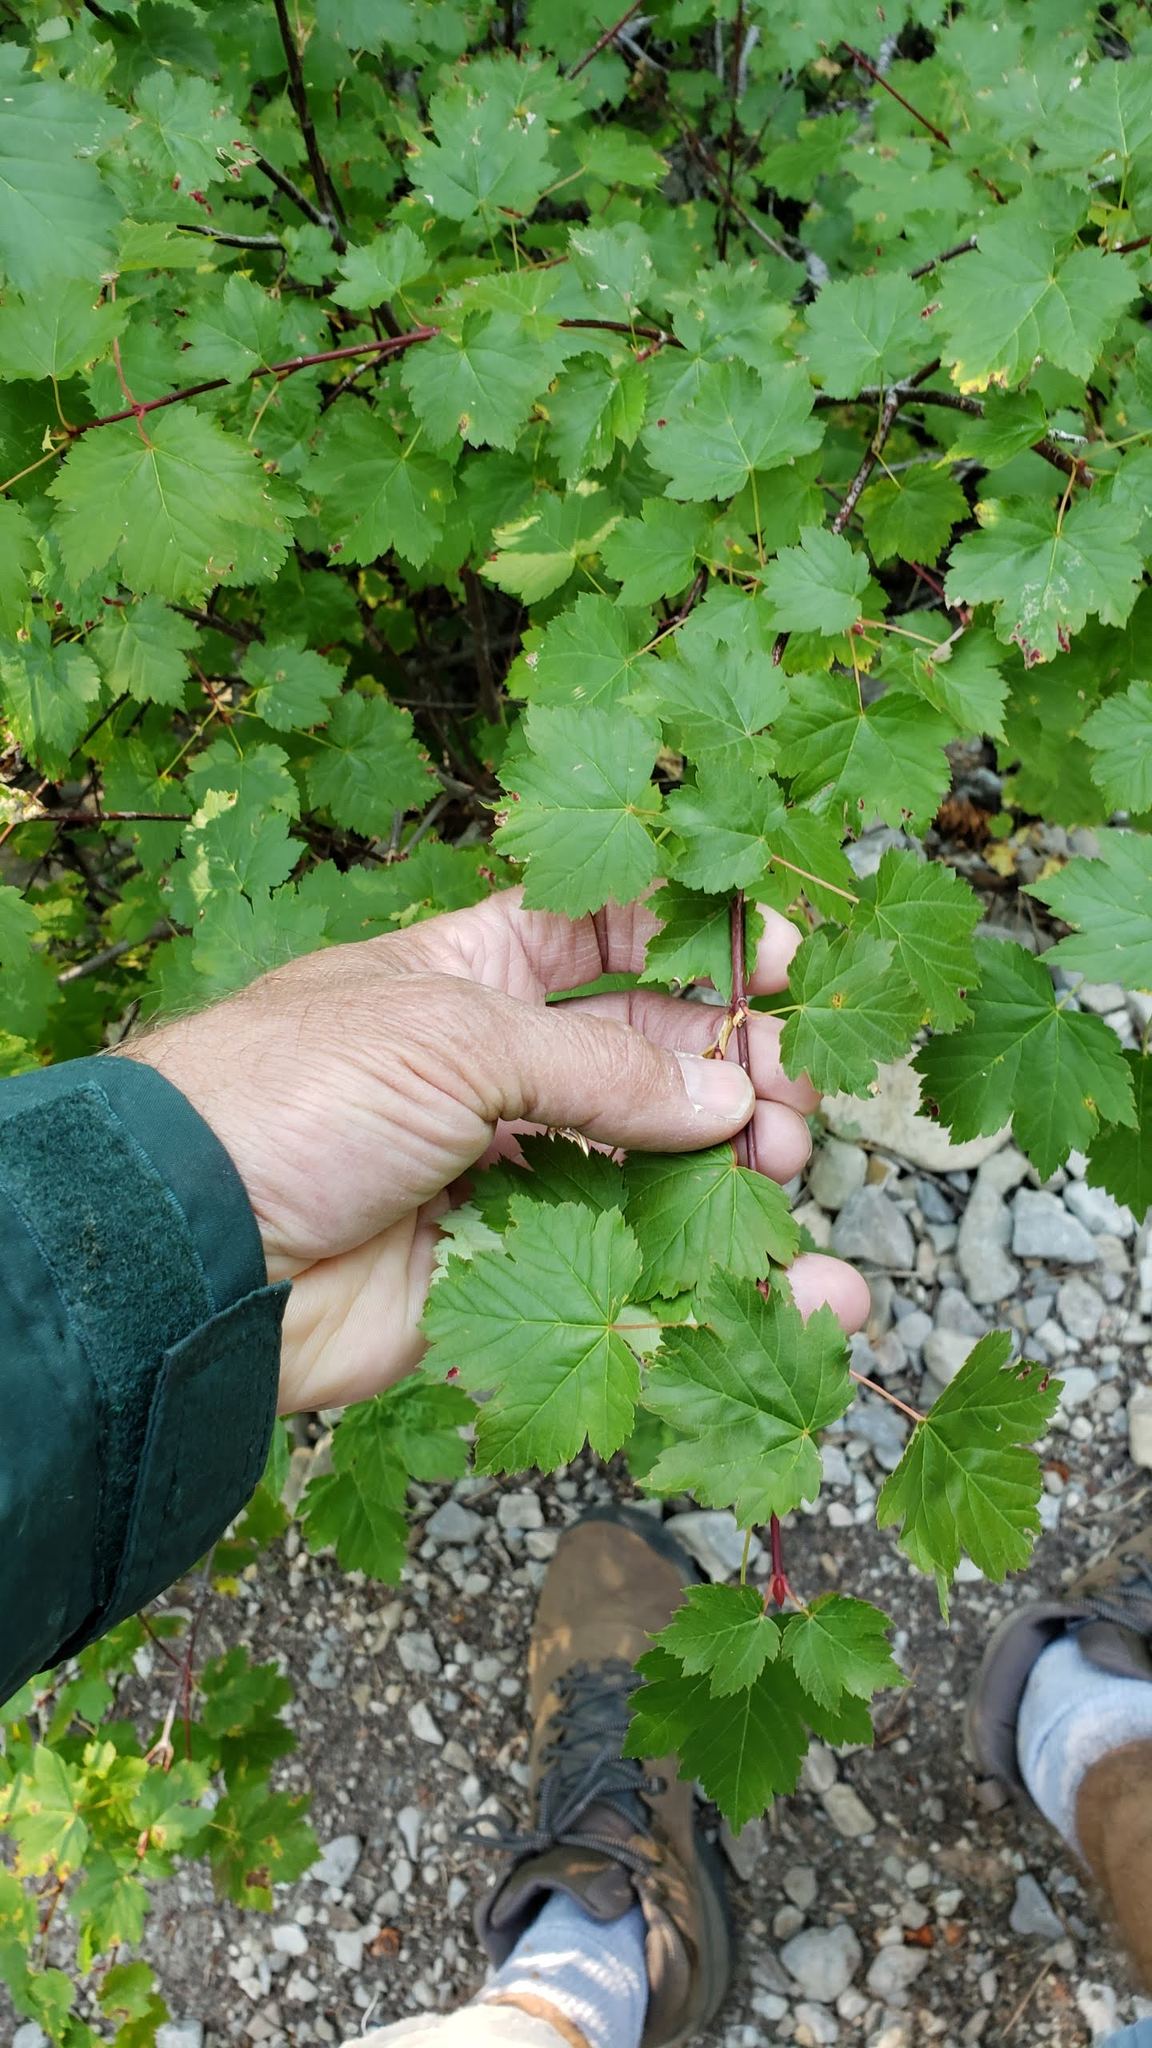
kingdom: Plantae
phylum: Tracheophyta
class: Magnoliopsida
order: Sapindales
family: Sapindaceae
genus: Acer
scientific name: Acer glabrum
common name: Rocky mountain maple
